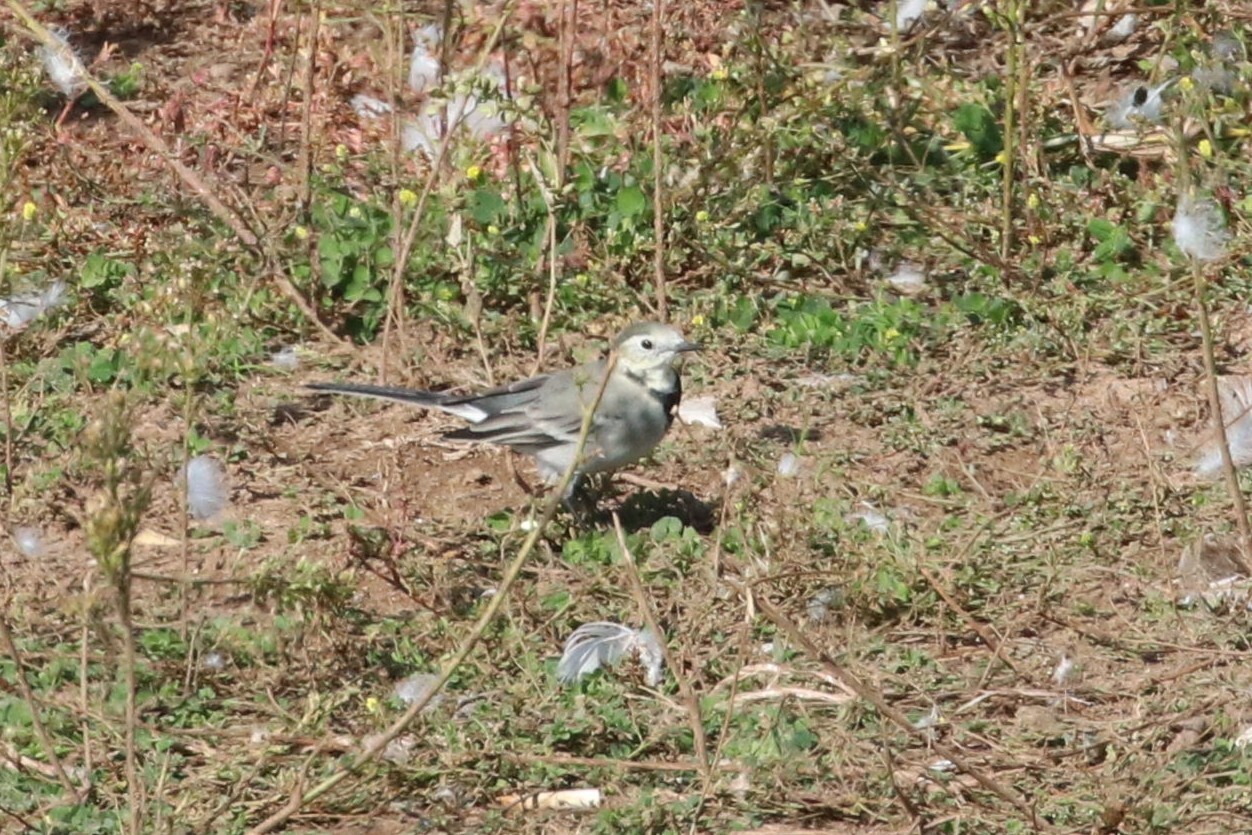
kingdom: Animalia
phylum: Chordata
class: Aves
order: Passeriformes
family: Motacillidae
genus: Motacilla
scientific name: Motacilla alba
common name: White wagtail
